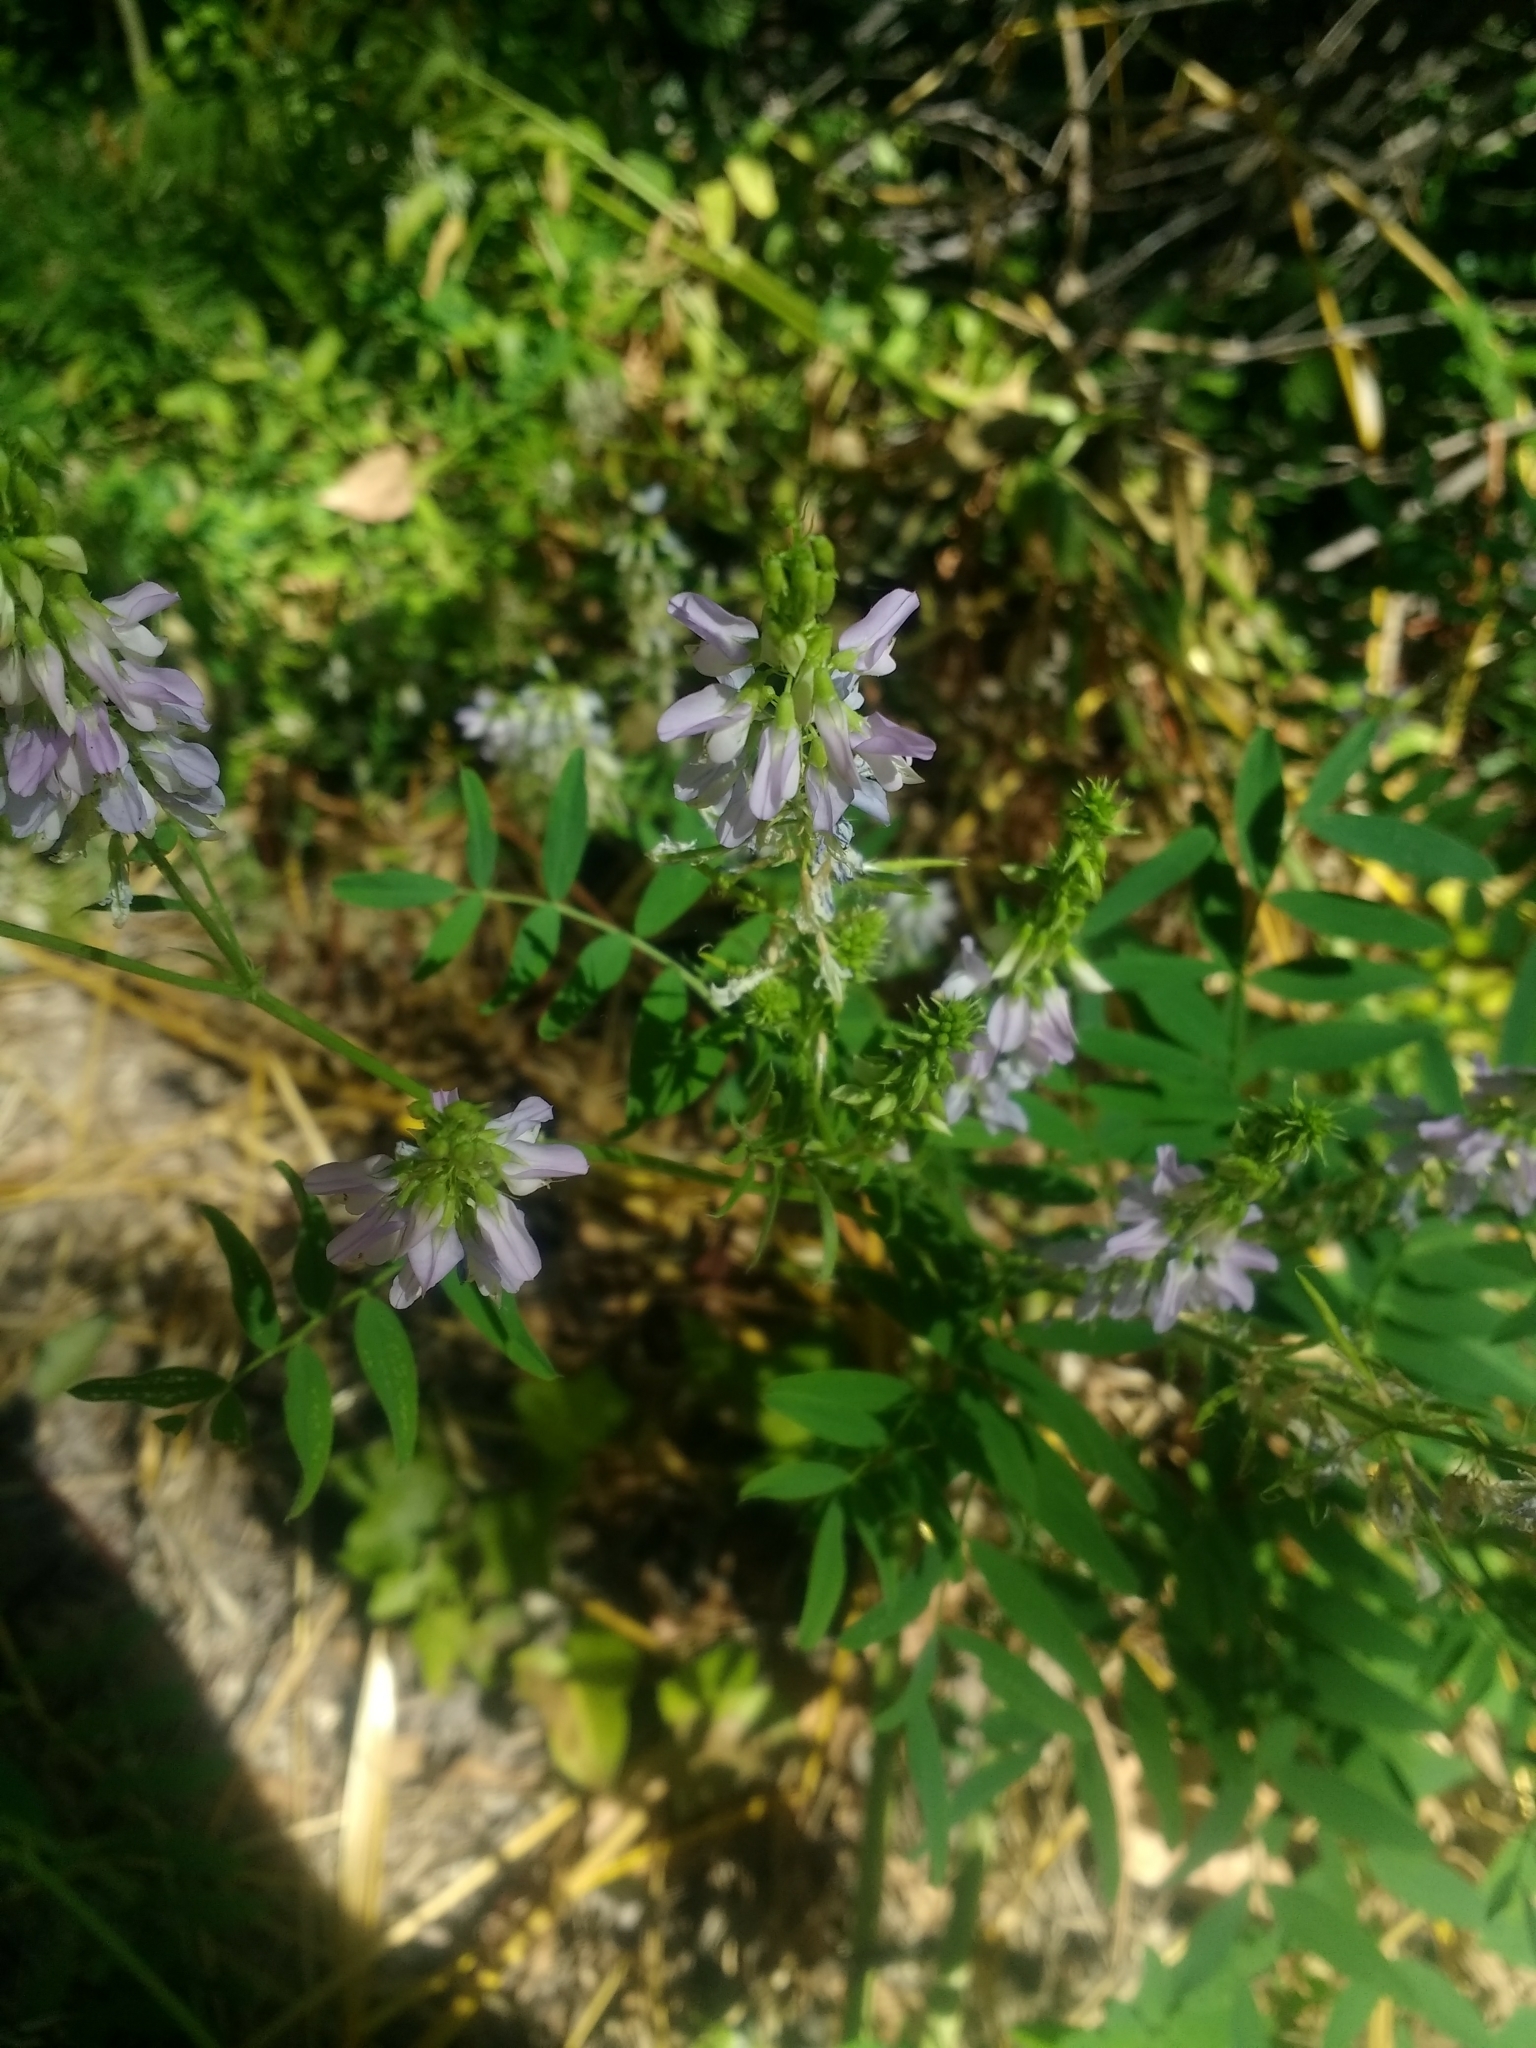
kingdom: Plantae
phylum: Tracheophyta
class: Magnoliopsida
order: Fabales
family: Fabaceae
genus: Galega
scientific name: Galega officinalis
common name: Goat's-rue
